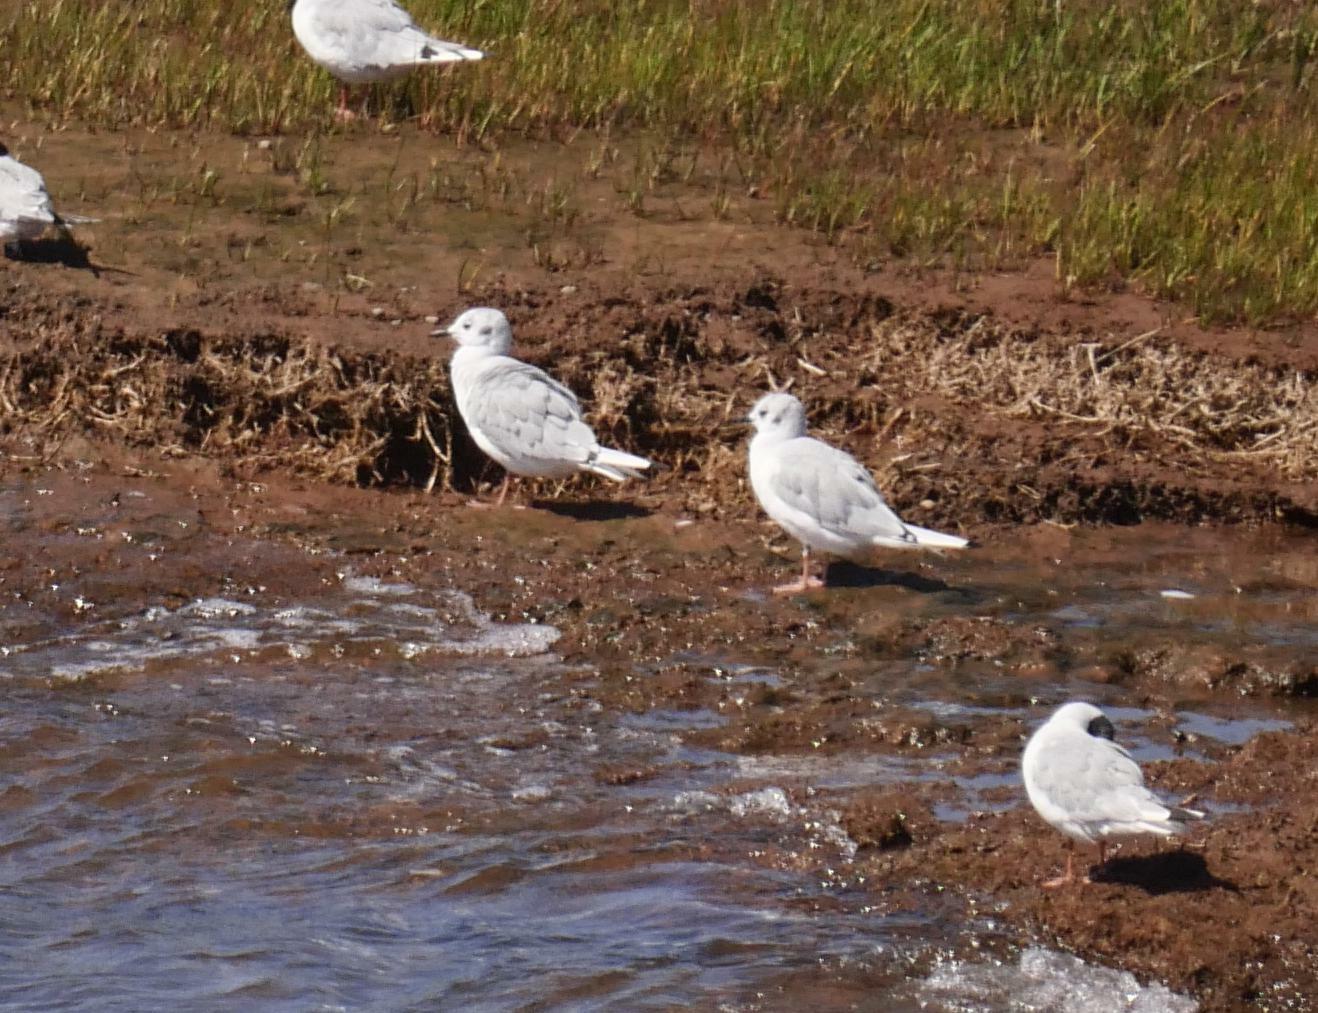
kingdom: Animalia
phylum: Chordata
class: Aves
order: Charadriiformes
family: Laridae
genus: Chroicocephalus
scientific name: Chroicocephalus philadelphia
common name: Bonaparte's gull
